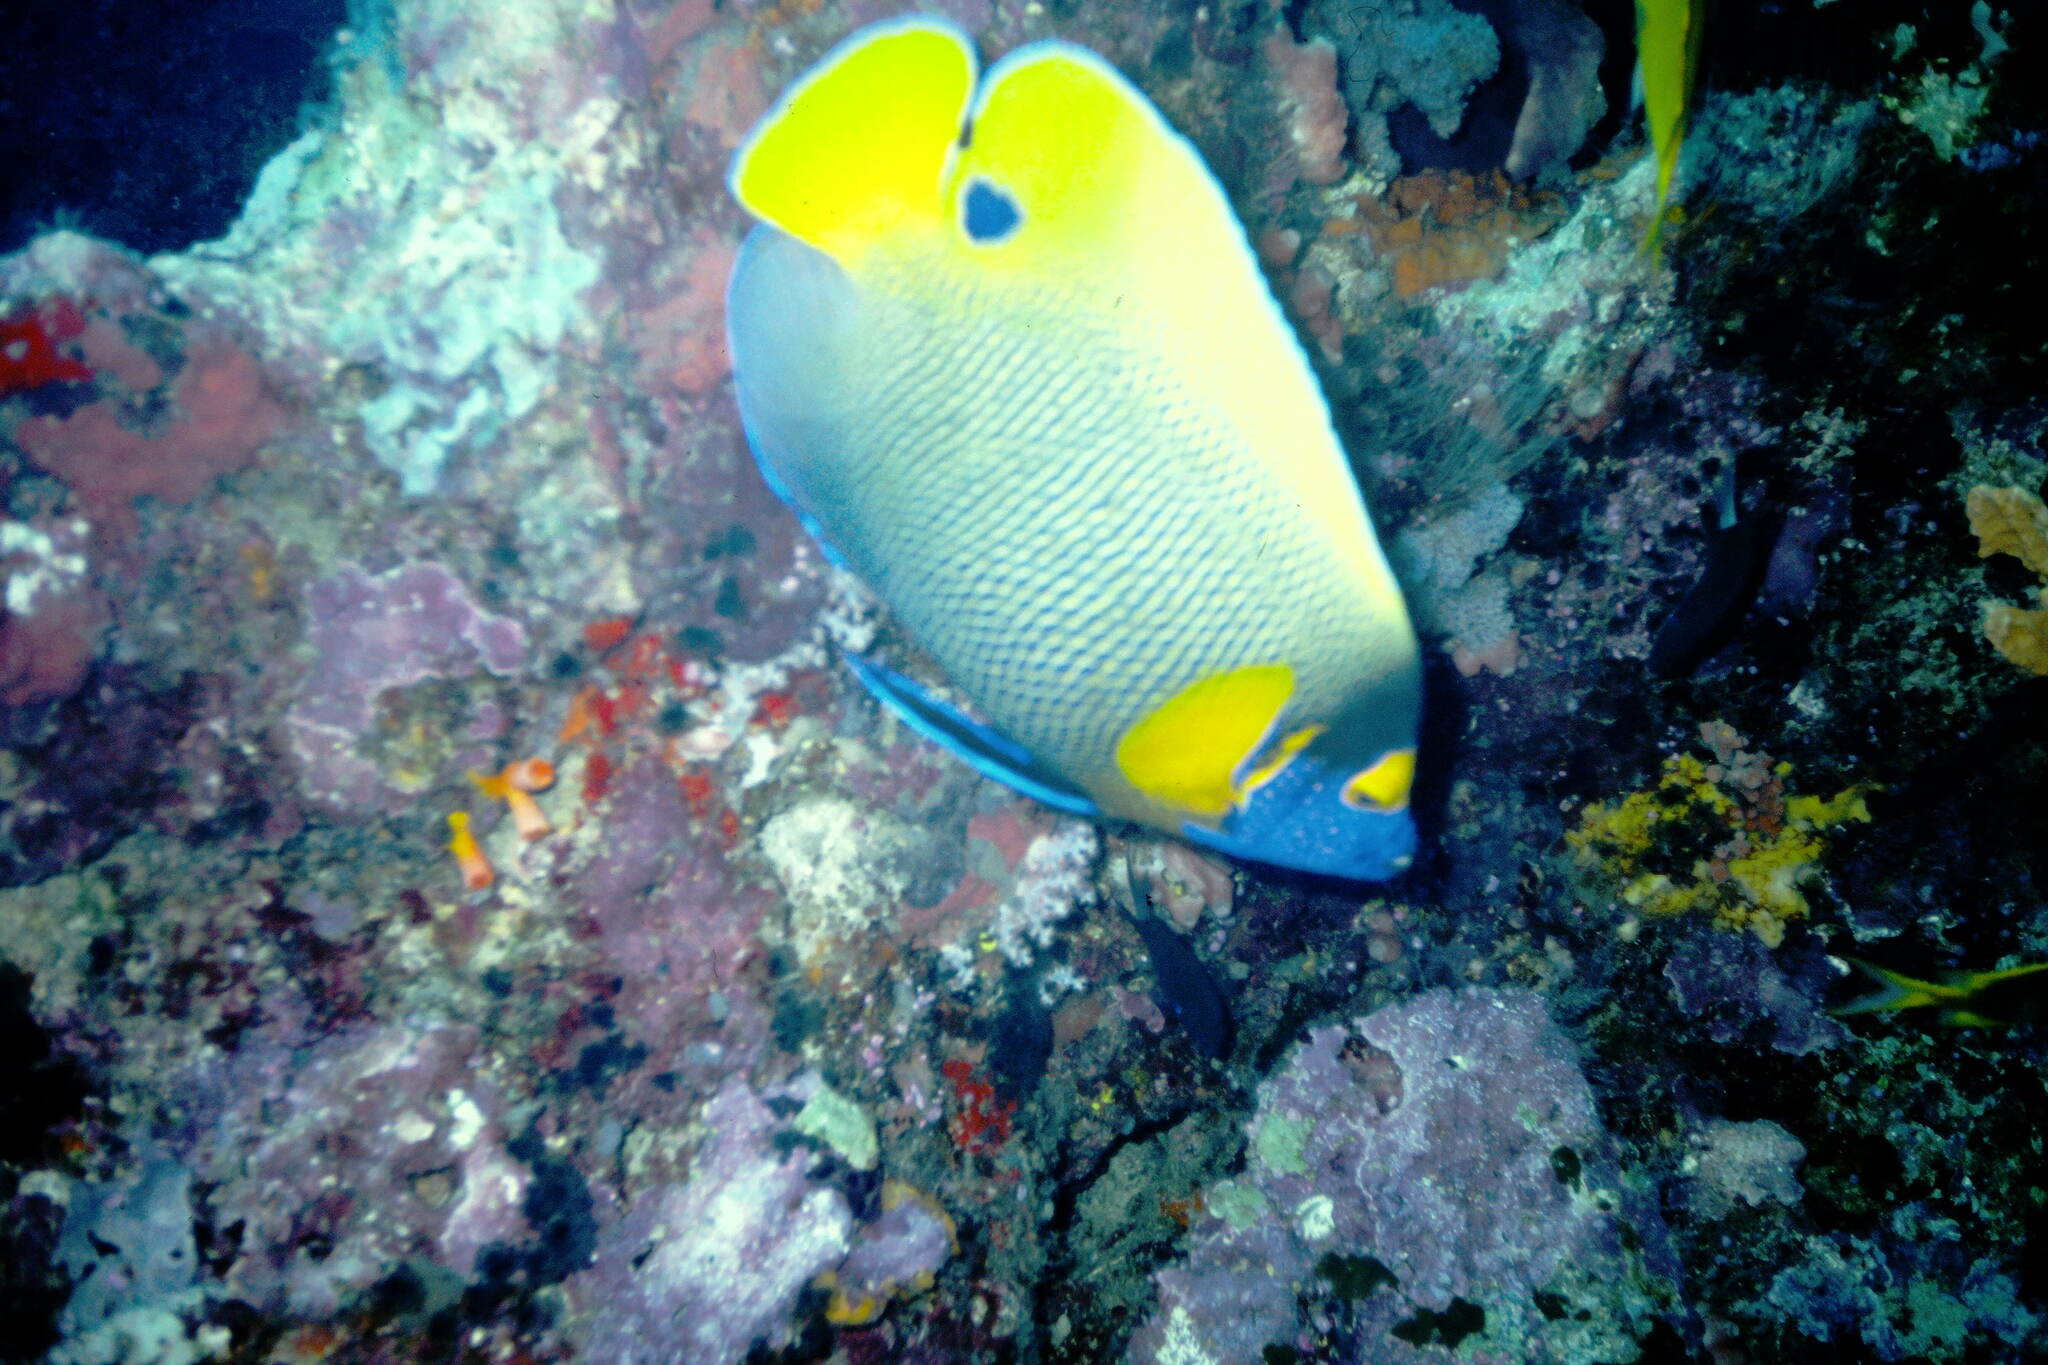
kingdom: Animalia
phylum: Chordata
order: Perciformes
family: Pomacanthidae
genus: Pomacanthus
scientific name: Pomacanthus xanthometopon
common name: Yellow-faced angelfish
